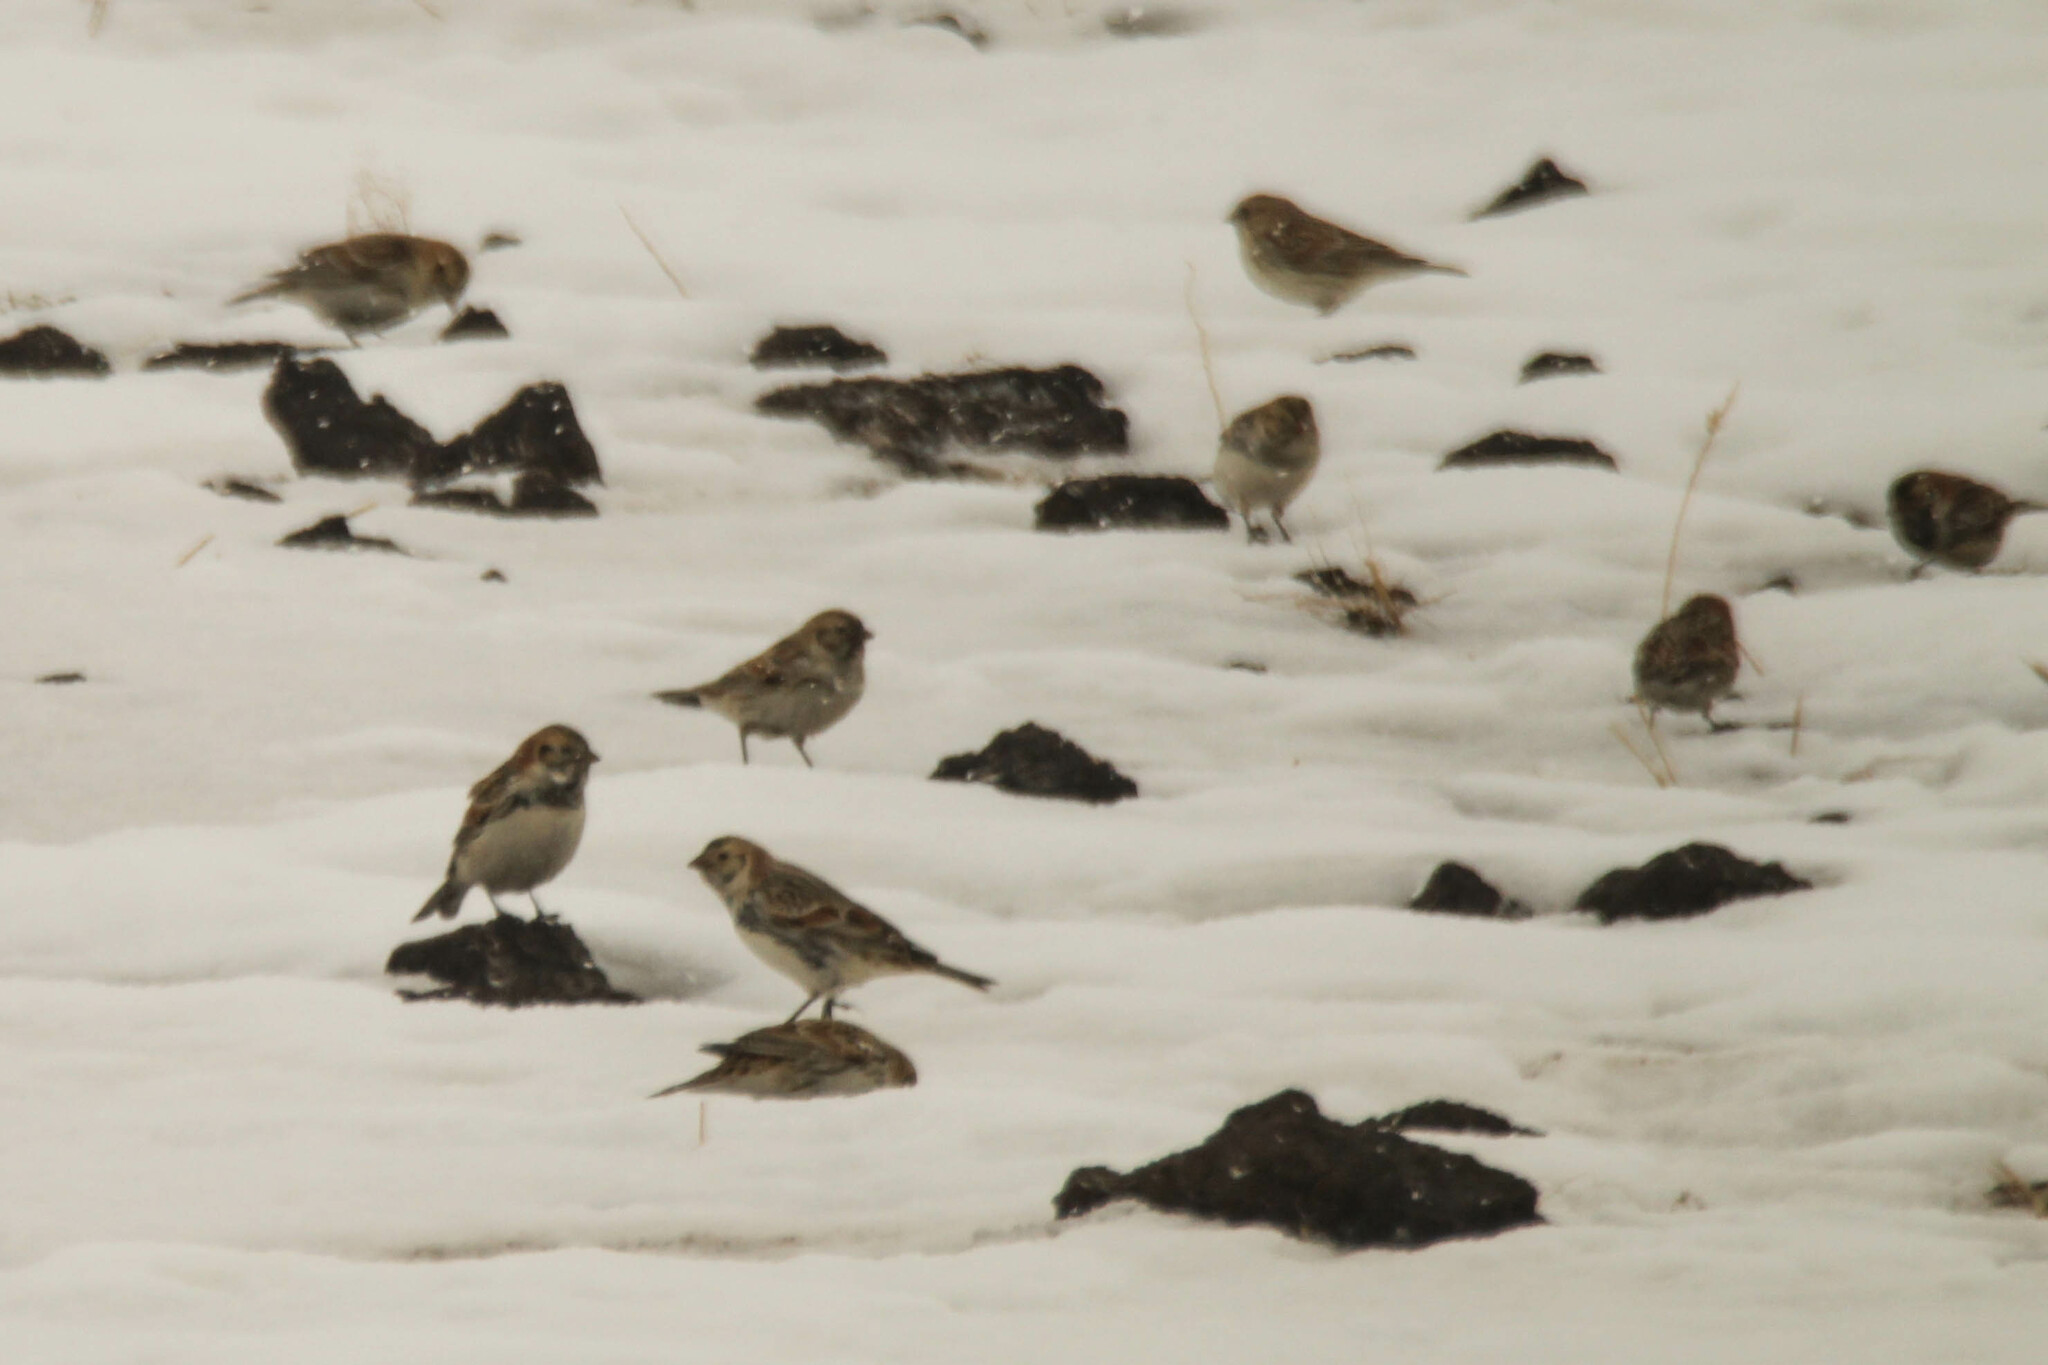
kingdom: Animalia
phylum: Chordata
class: Aves
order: Passeriformes
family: Calcariidae
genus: Calcarius
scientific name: Calcarius lapponicus
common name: Lapland longspur
